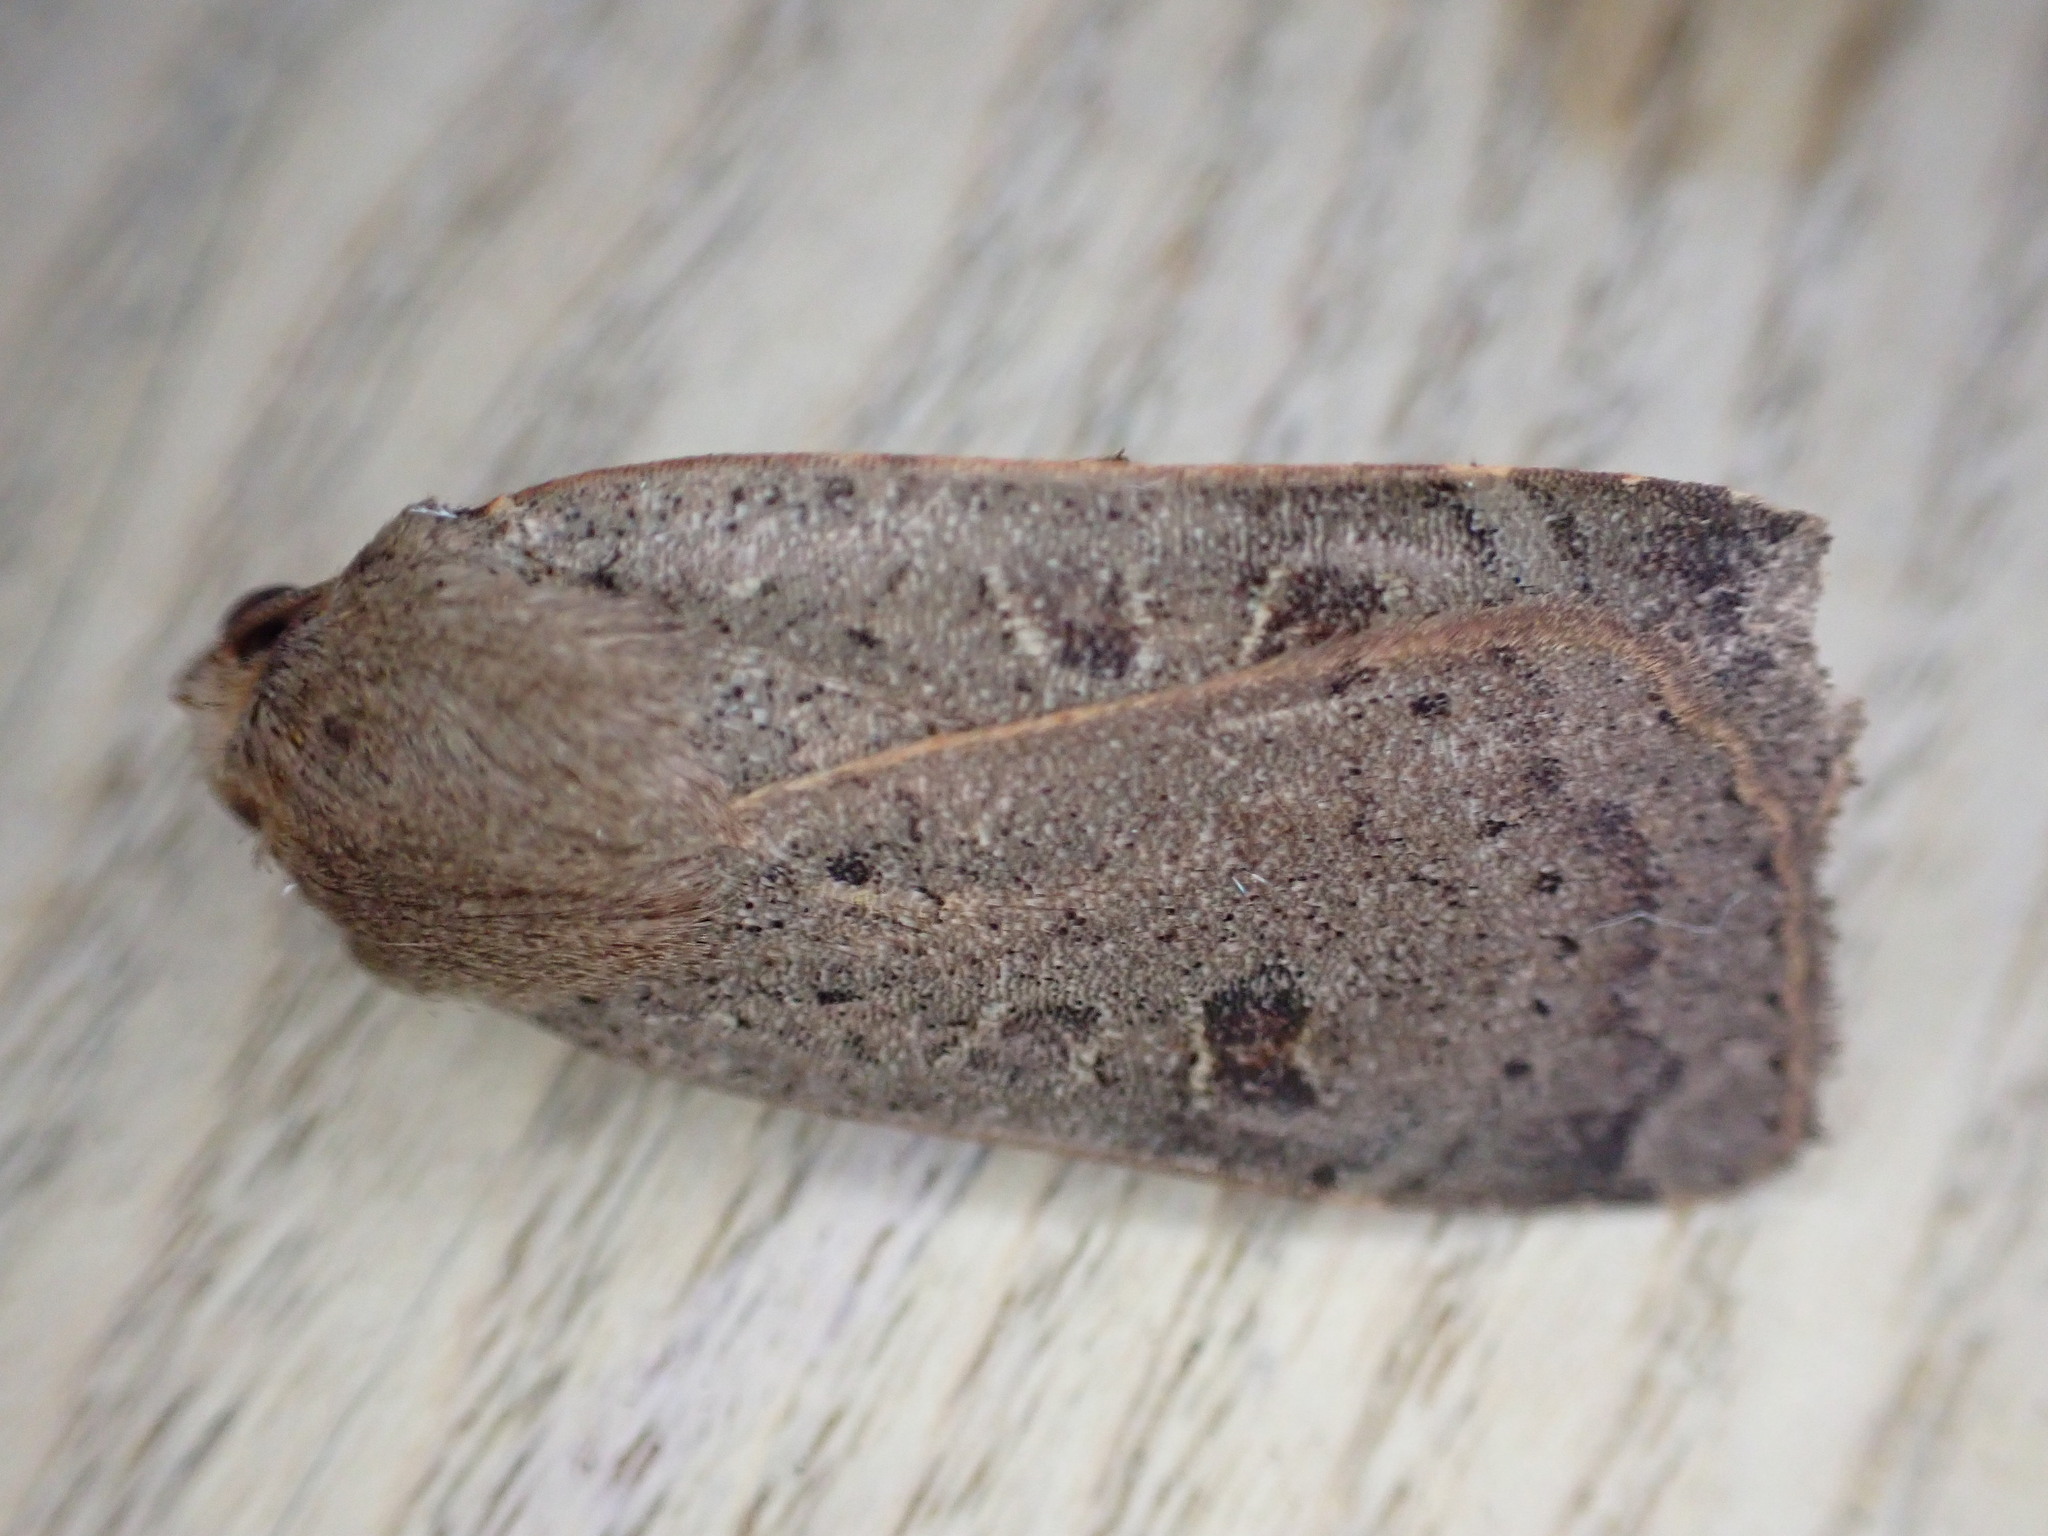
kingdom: Animalia
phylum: Arthropoda
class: Insecta
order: Lepidoptera
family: Noctuidae
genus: Noctua
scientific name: Noctua comes
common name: Lesser yellow underwing
